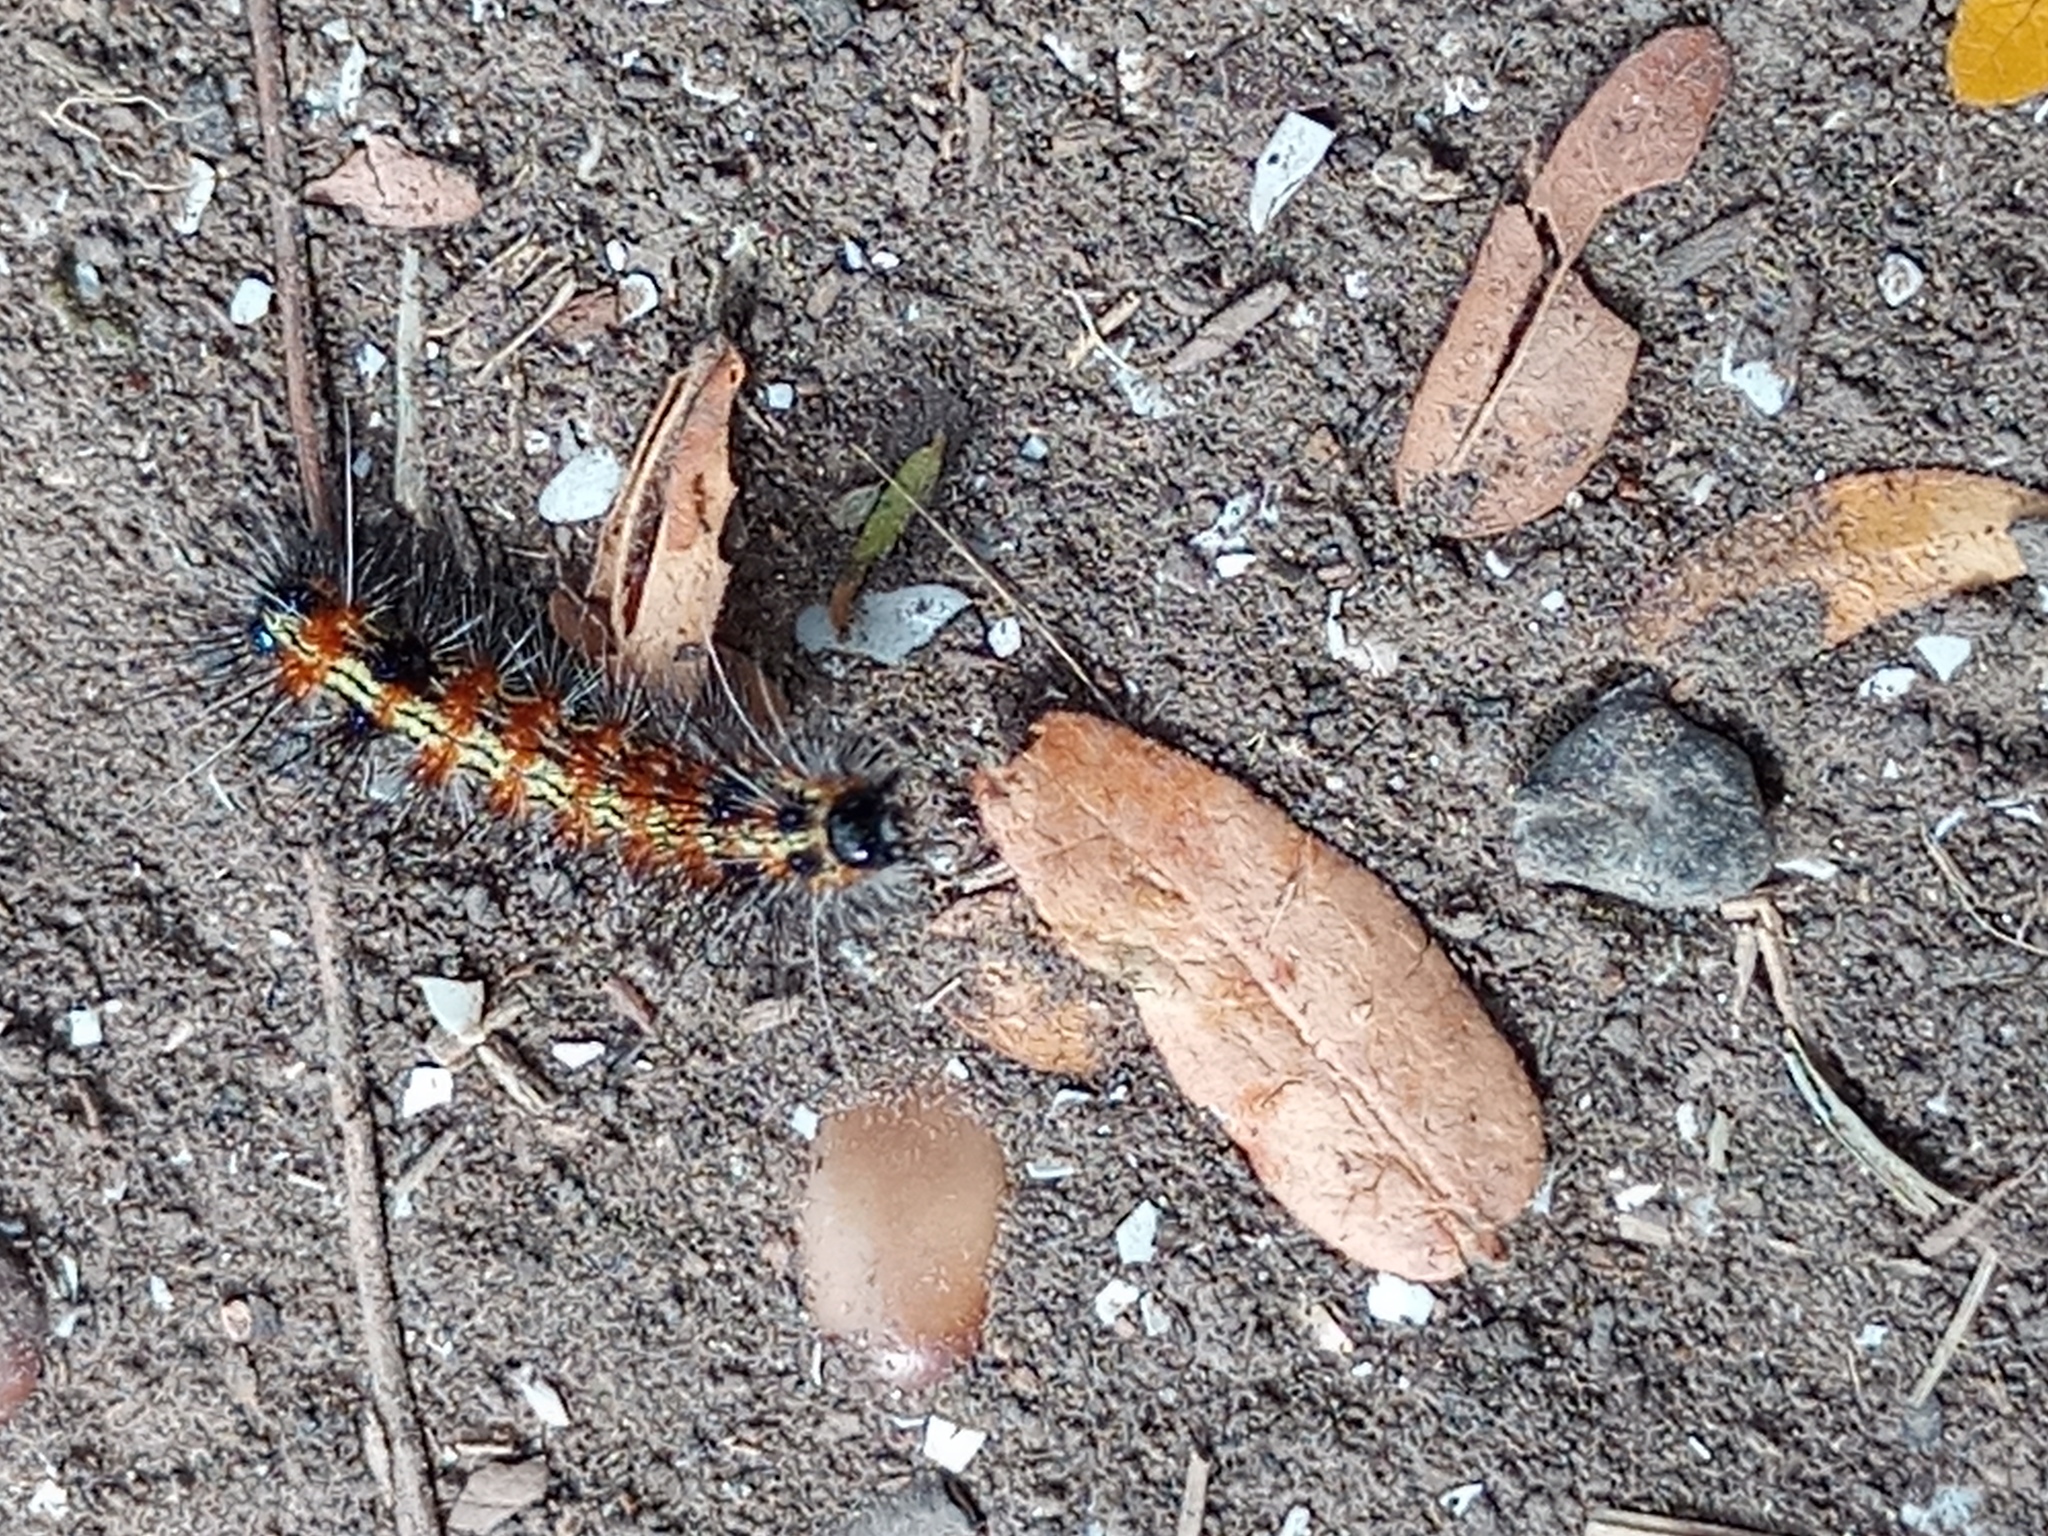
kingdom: Animalia
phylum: Arthropoda
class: Insecta
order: Lepidoptera
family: Erebidae
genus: Dysschema
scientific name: Dysschema sacrifica
